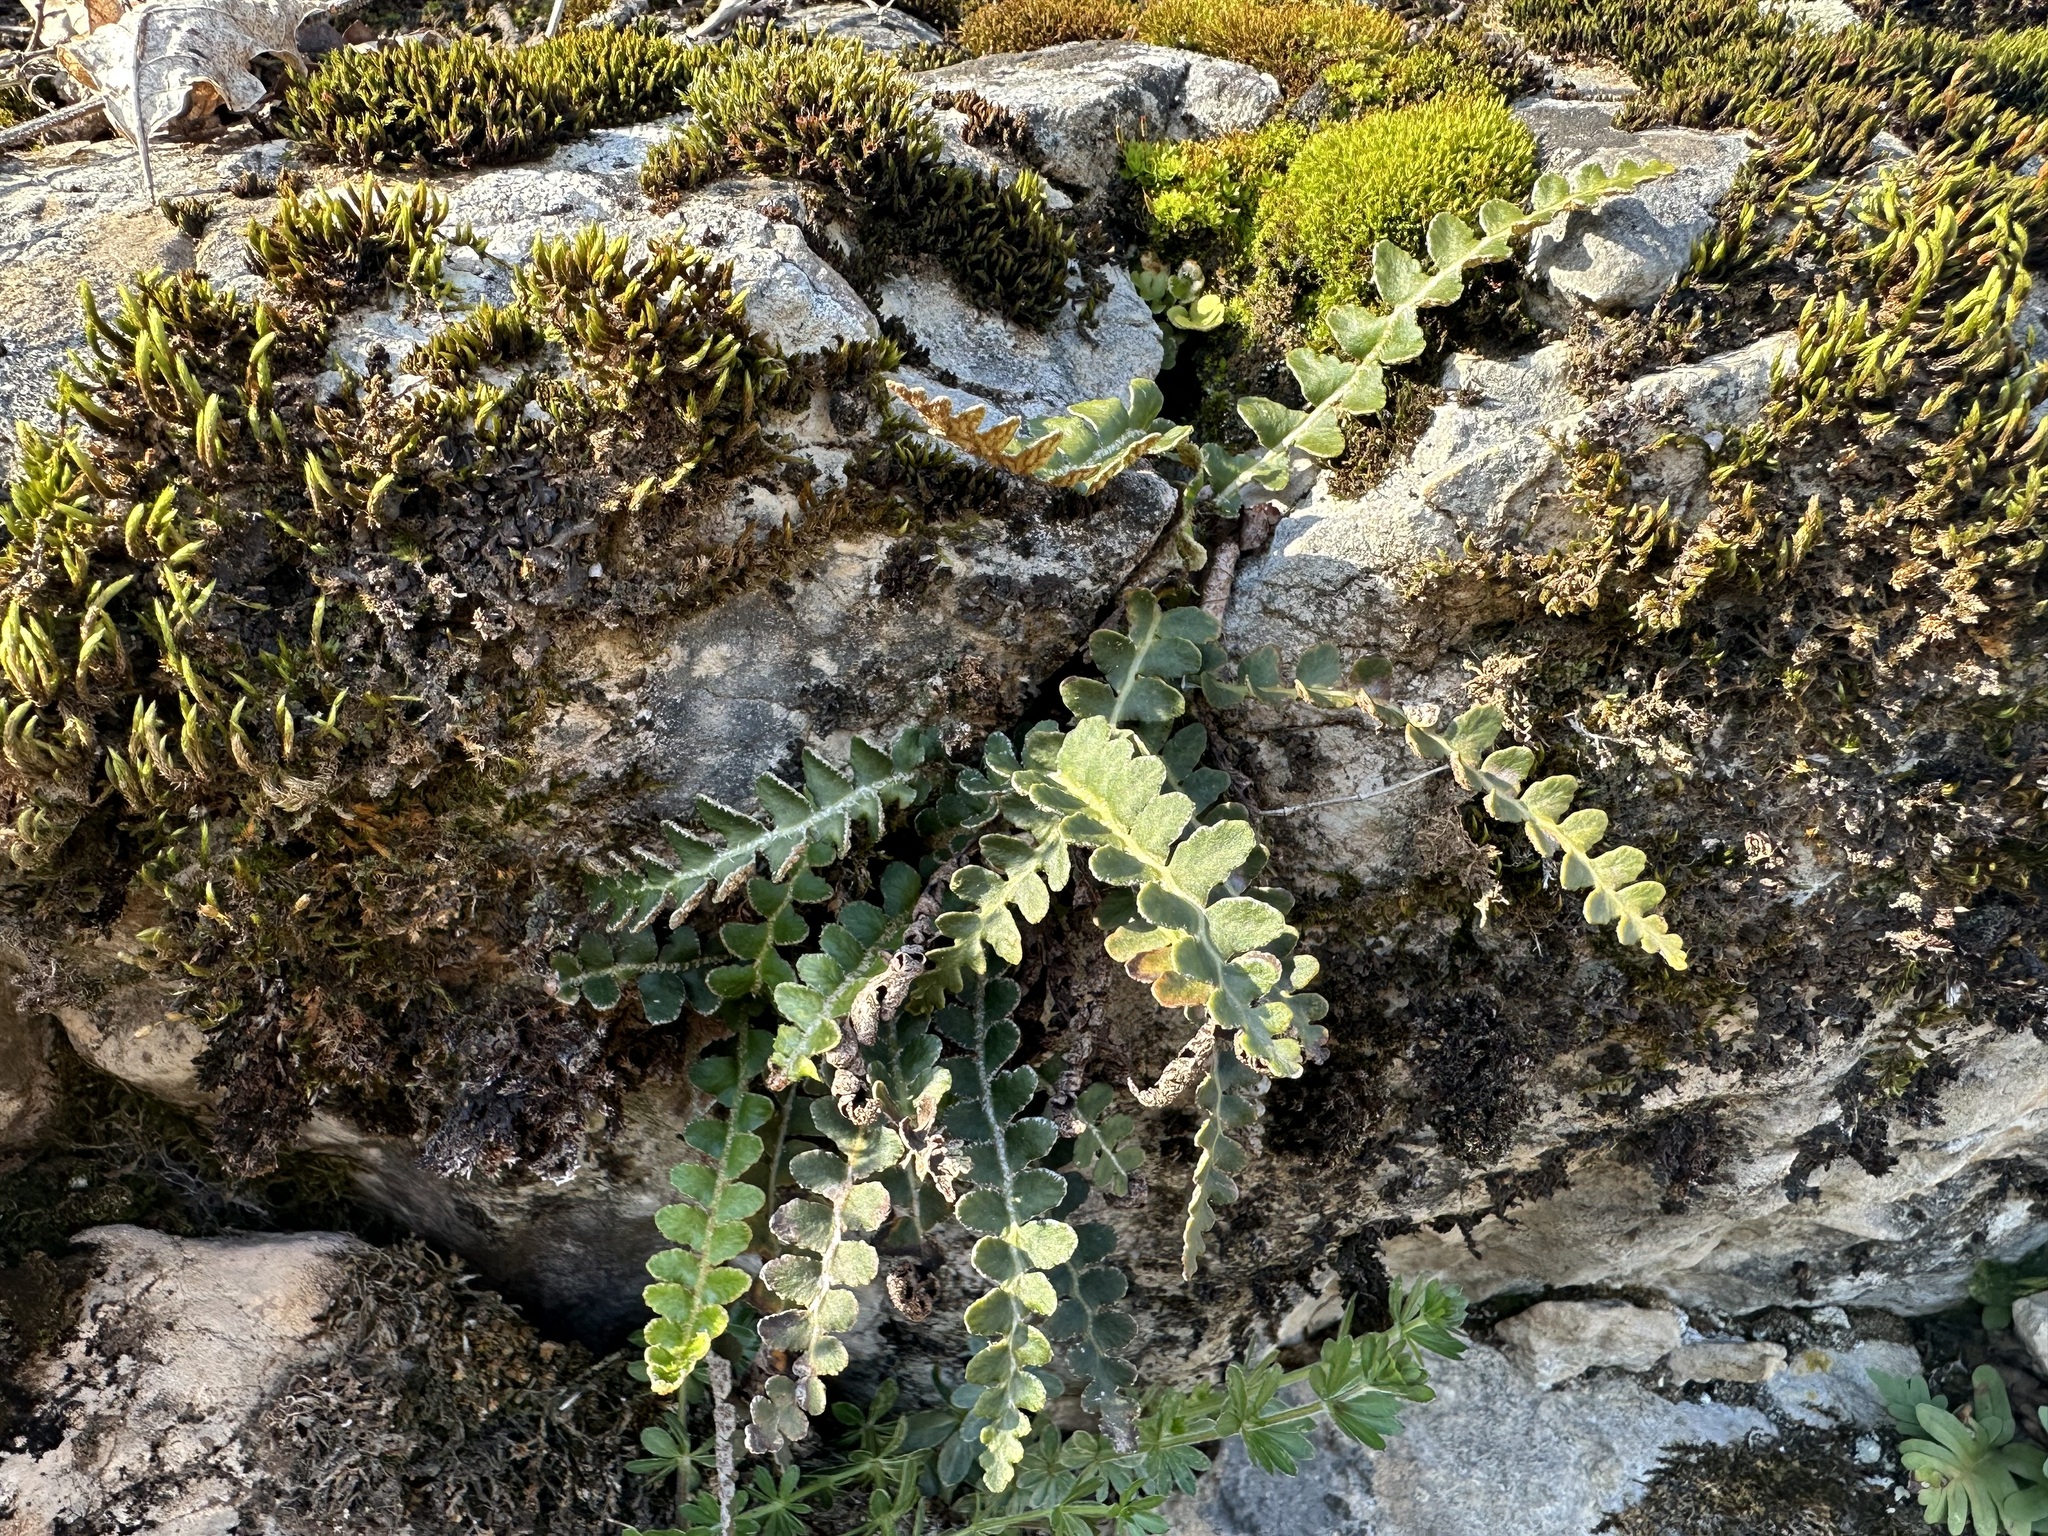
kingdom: Plantae
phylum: Tracheophyta
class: Polypodiopsida
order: Polypodiales
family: Aspleniaceae
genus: Asplenium
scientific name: Asplenium ceterach
